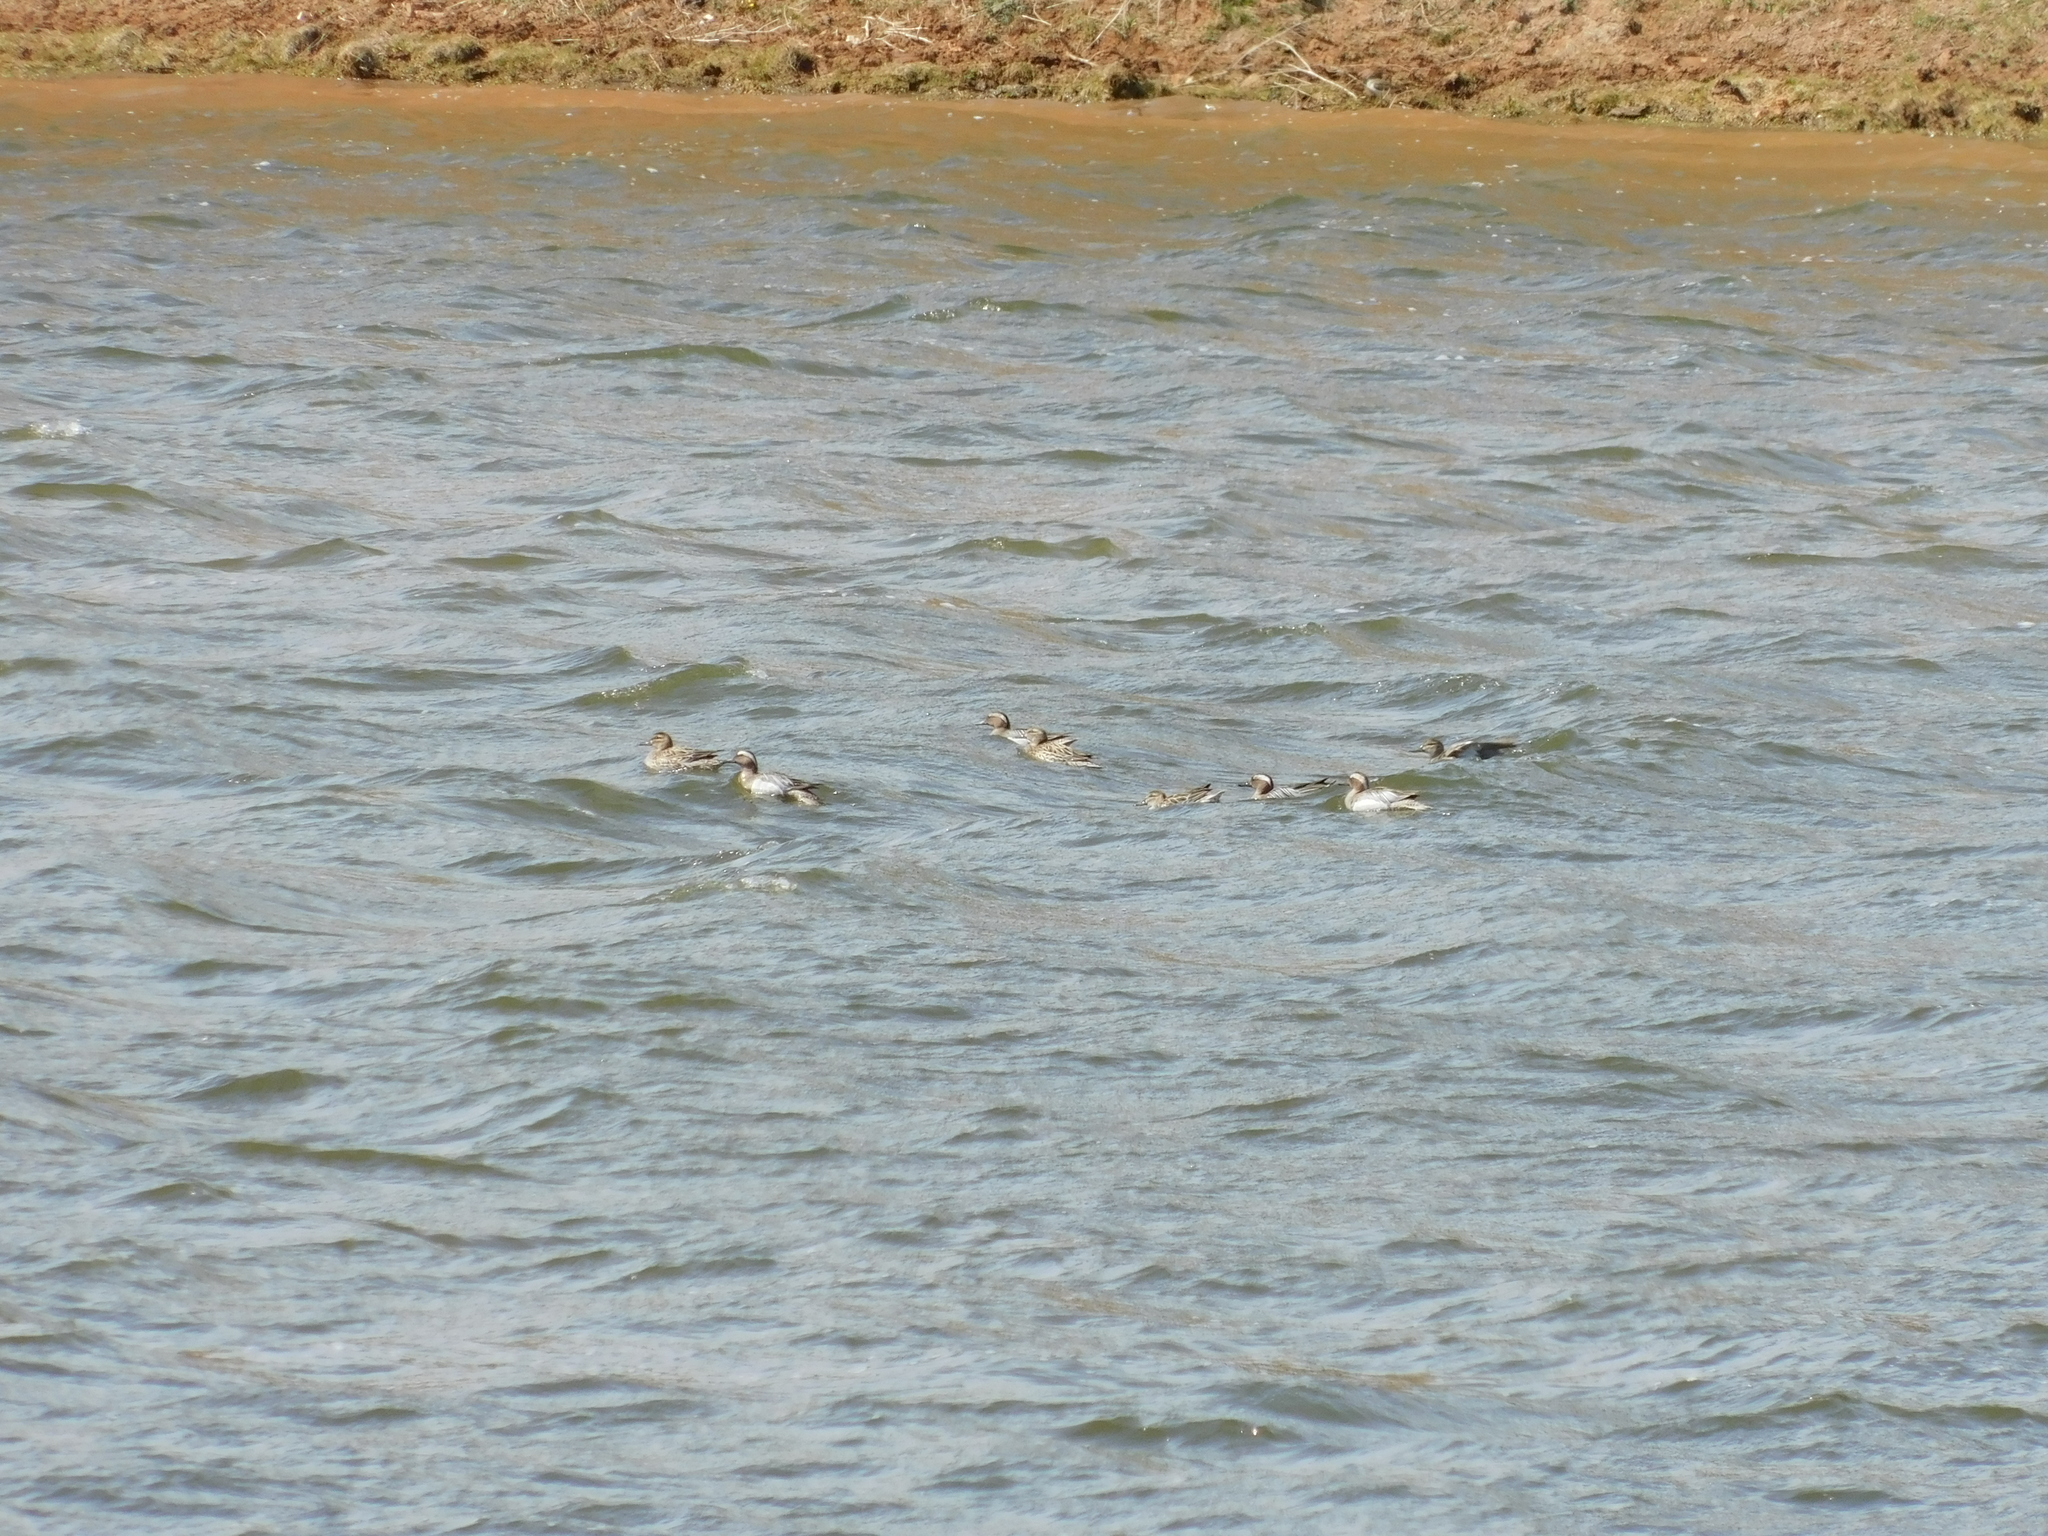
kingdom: Animalia
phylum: Chordata
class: Aves
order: Anseriformes
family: Anatidae
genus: Spatula
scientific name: Spatula querquedula
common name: Garganey
